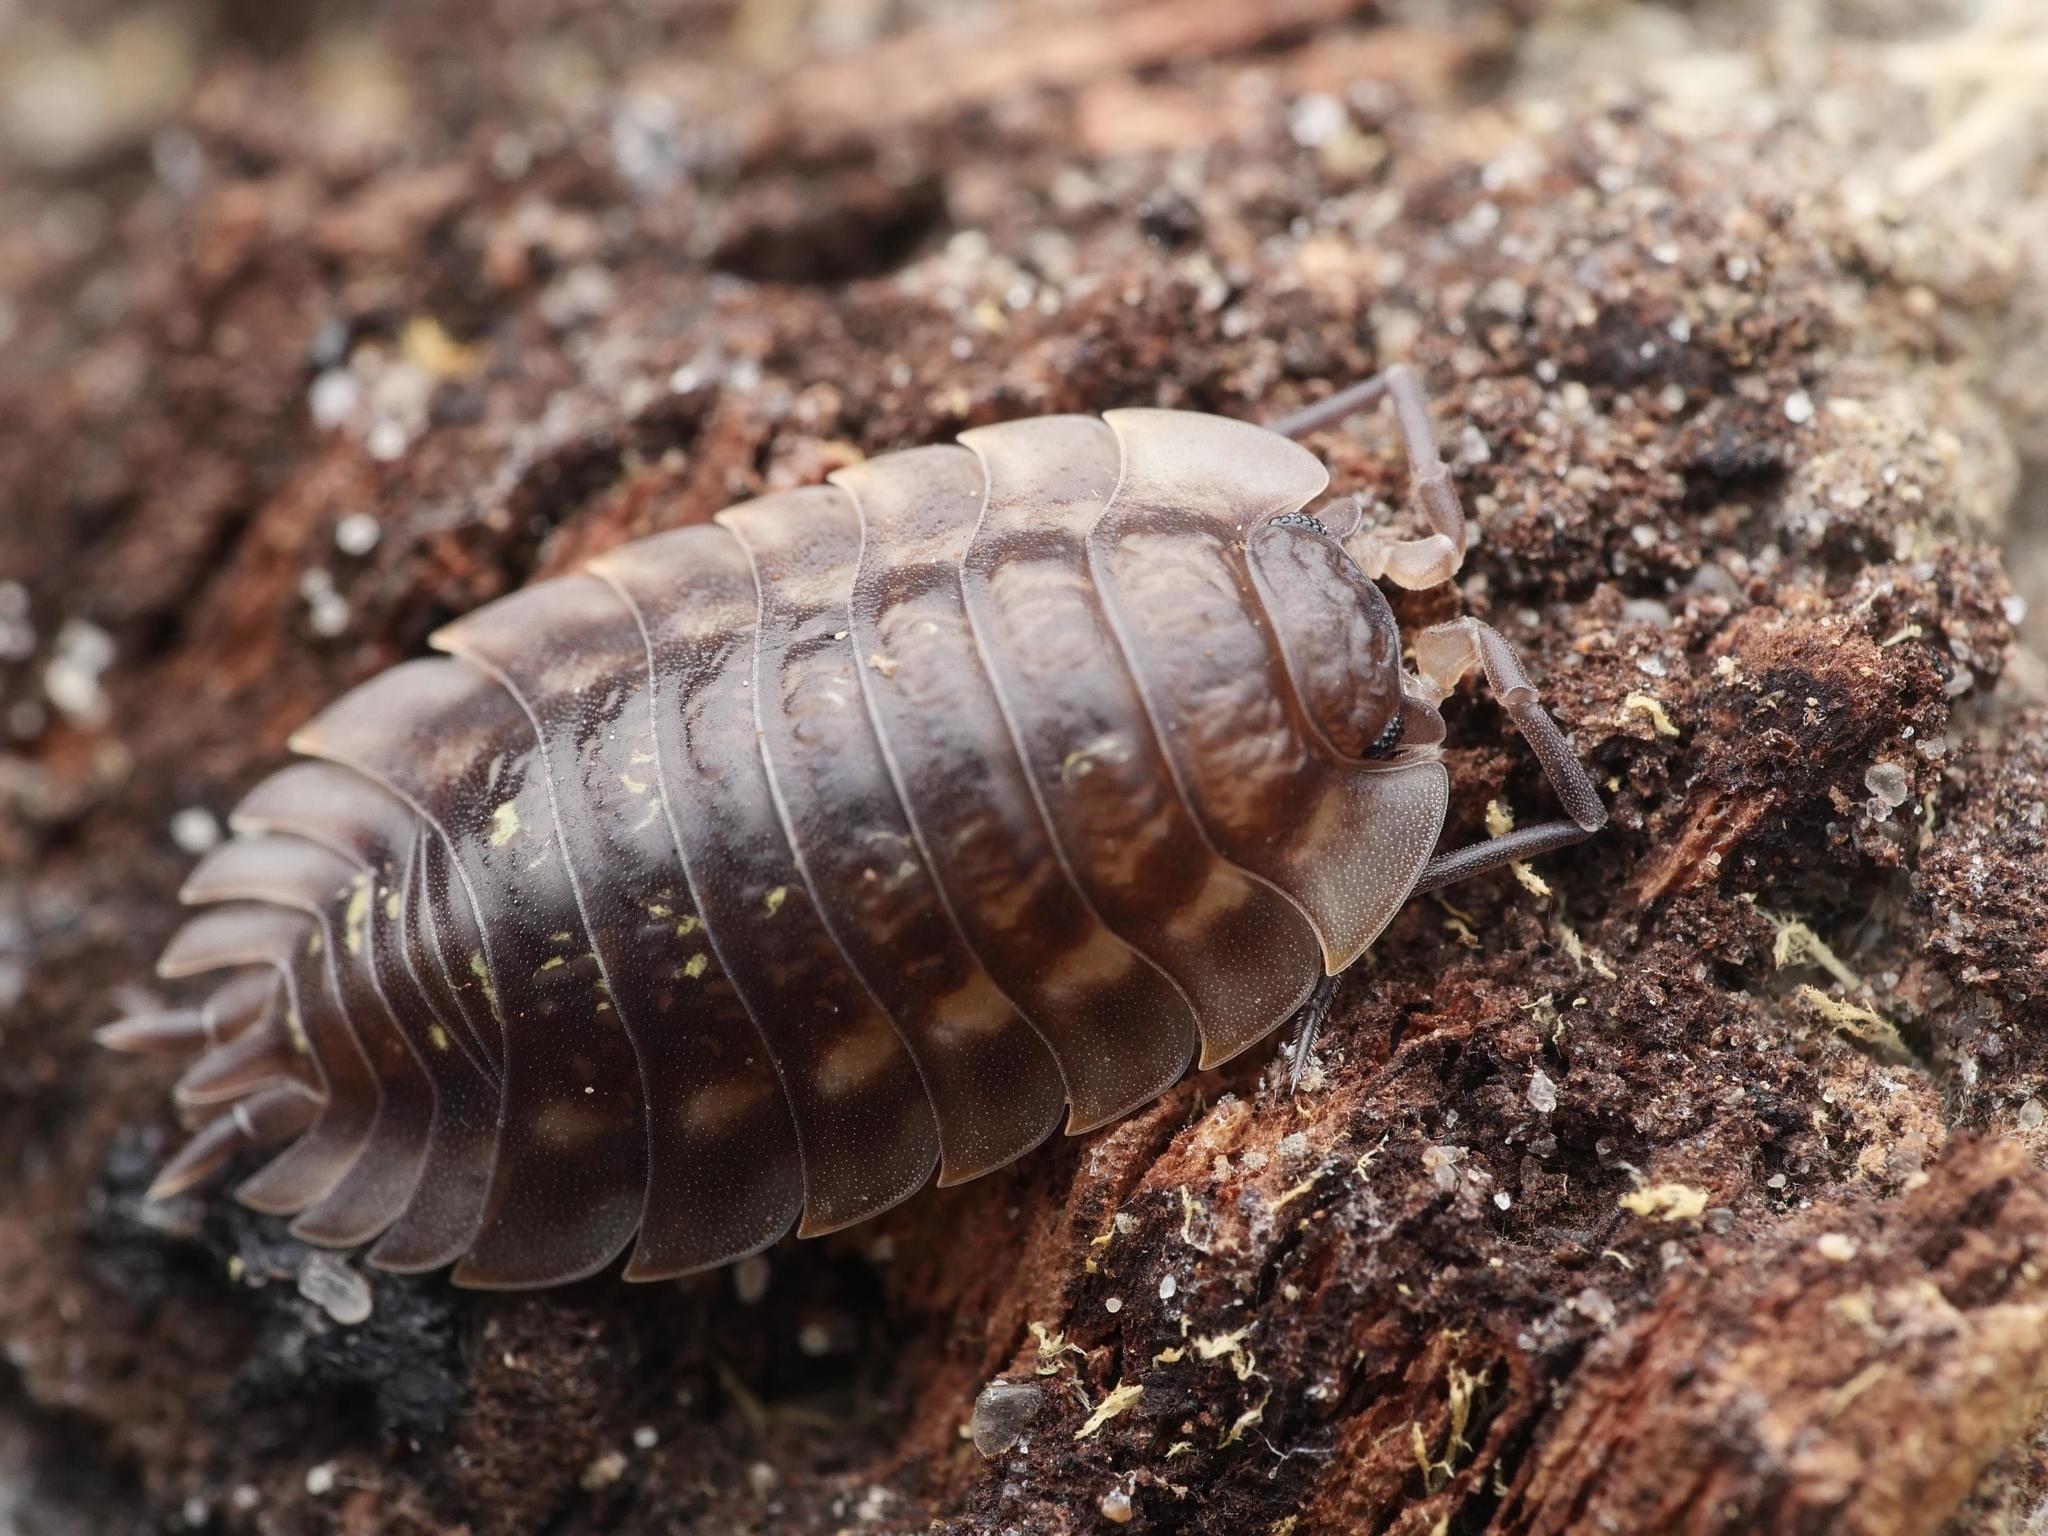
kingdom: Animalia
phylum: Arthropoda
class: Malacostraca
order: Isopoda
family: Oniscidae
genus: Oniscus
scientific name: Oniscus asellus
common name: Common shiny woodlouse
